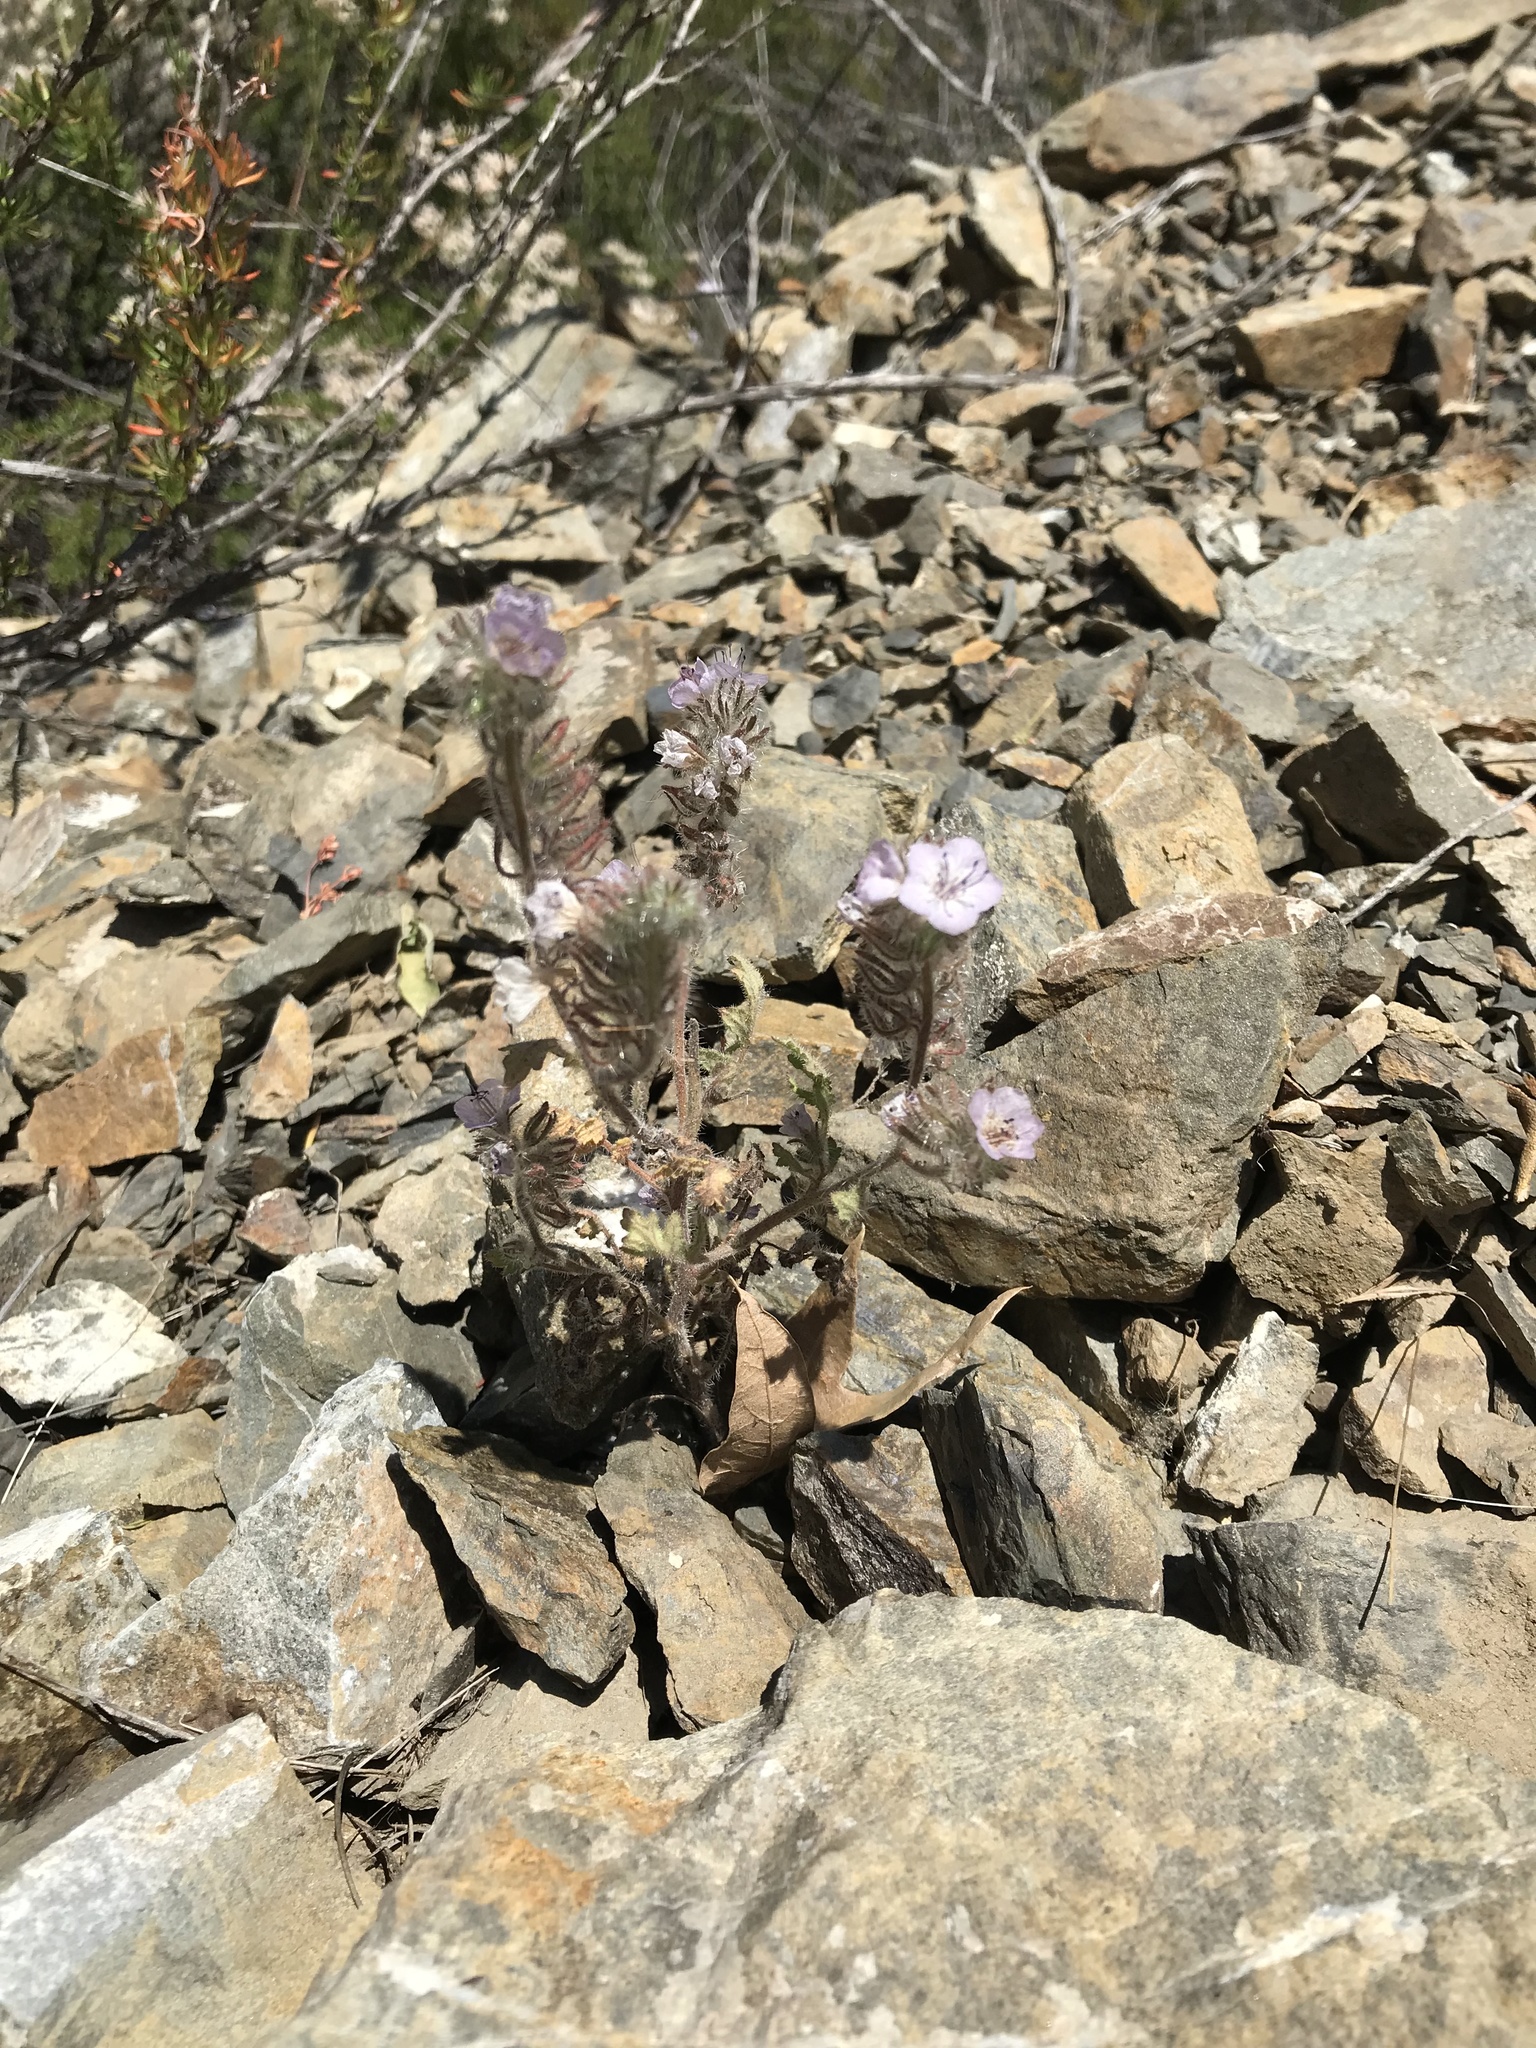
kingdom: Plantae
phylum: Tracheophyta
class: Magnoliopsida
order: Boraginales
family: Hydrophyllaceae
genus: Phacelia
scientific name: Phacelia cicutaria
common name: Caterpillar phacelia
